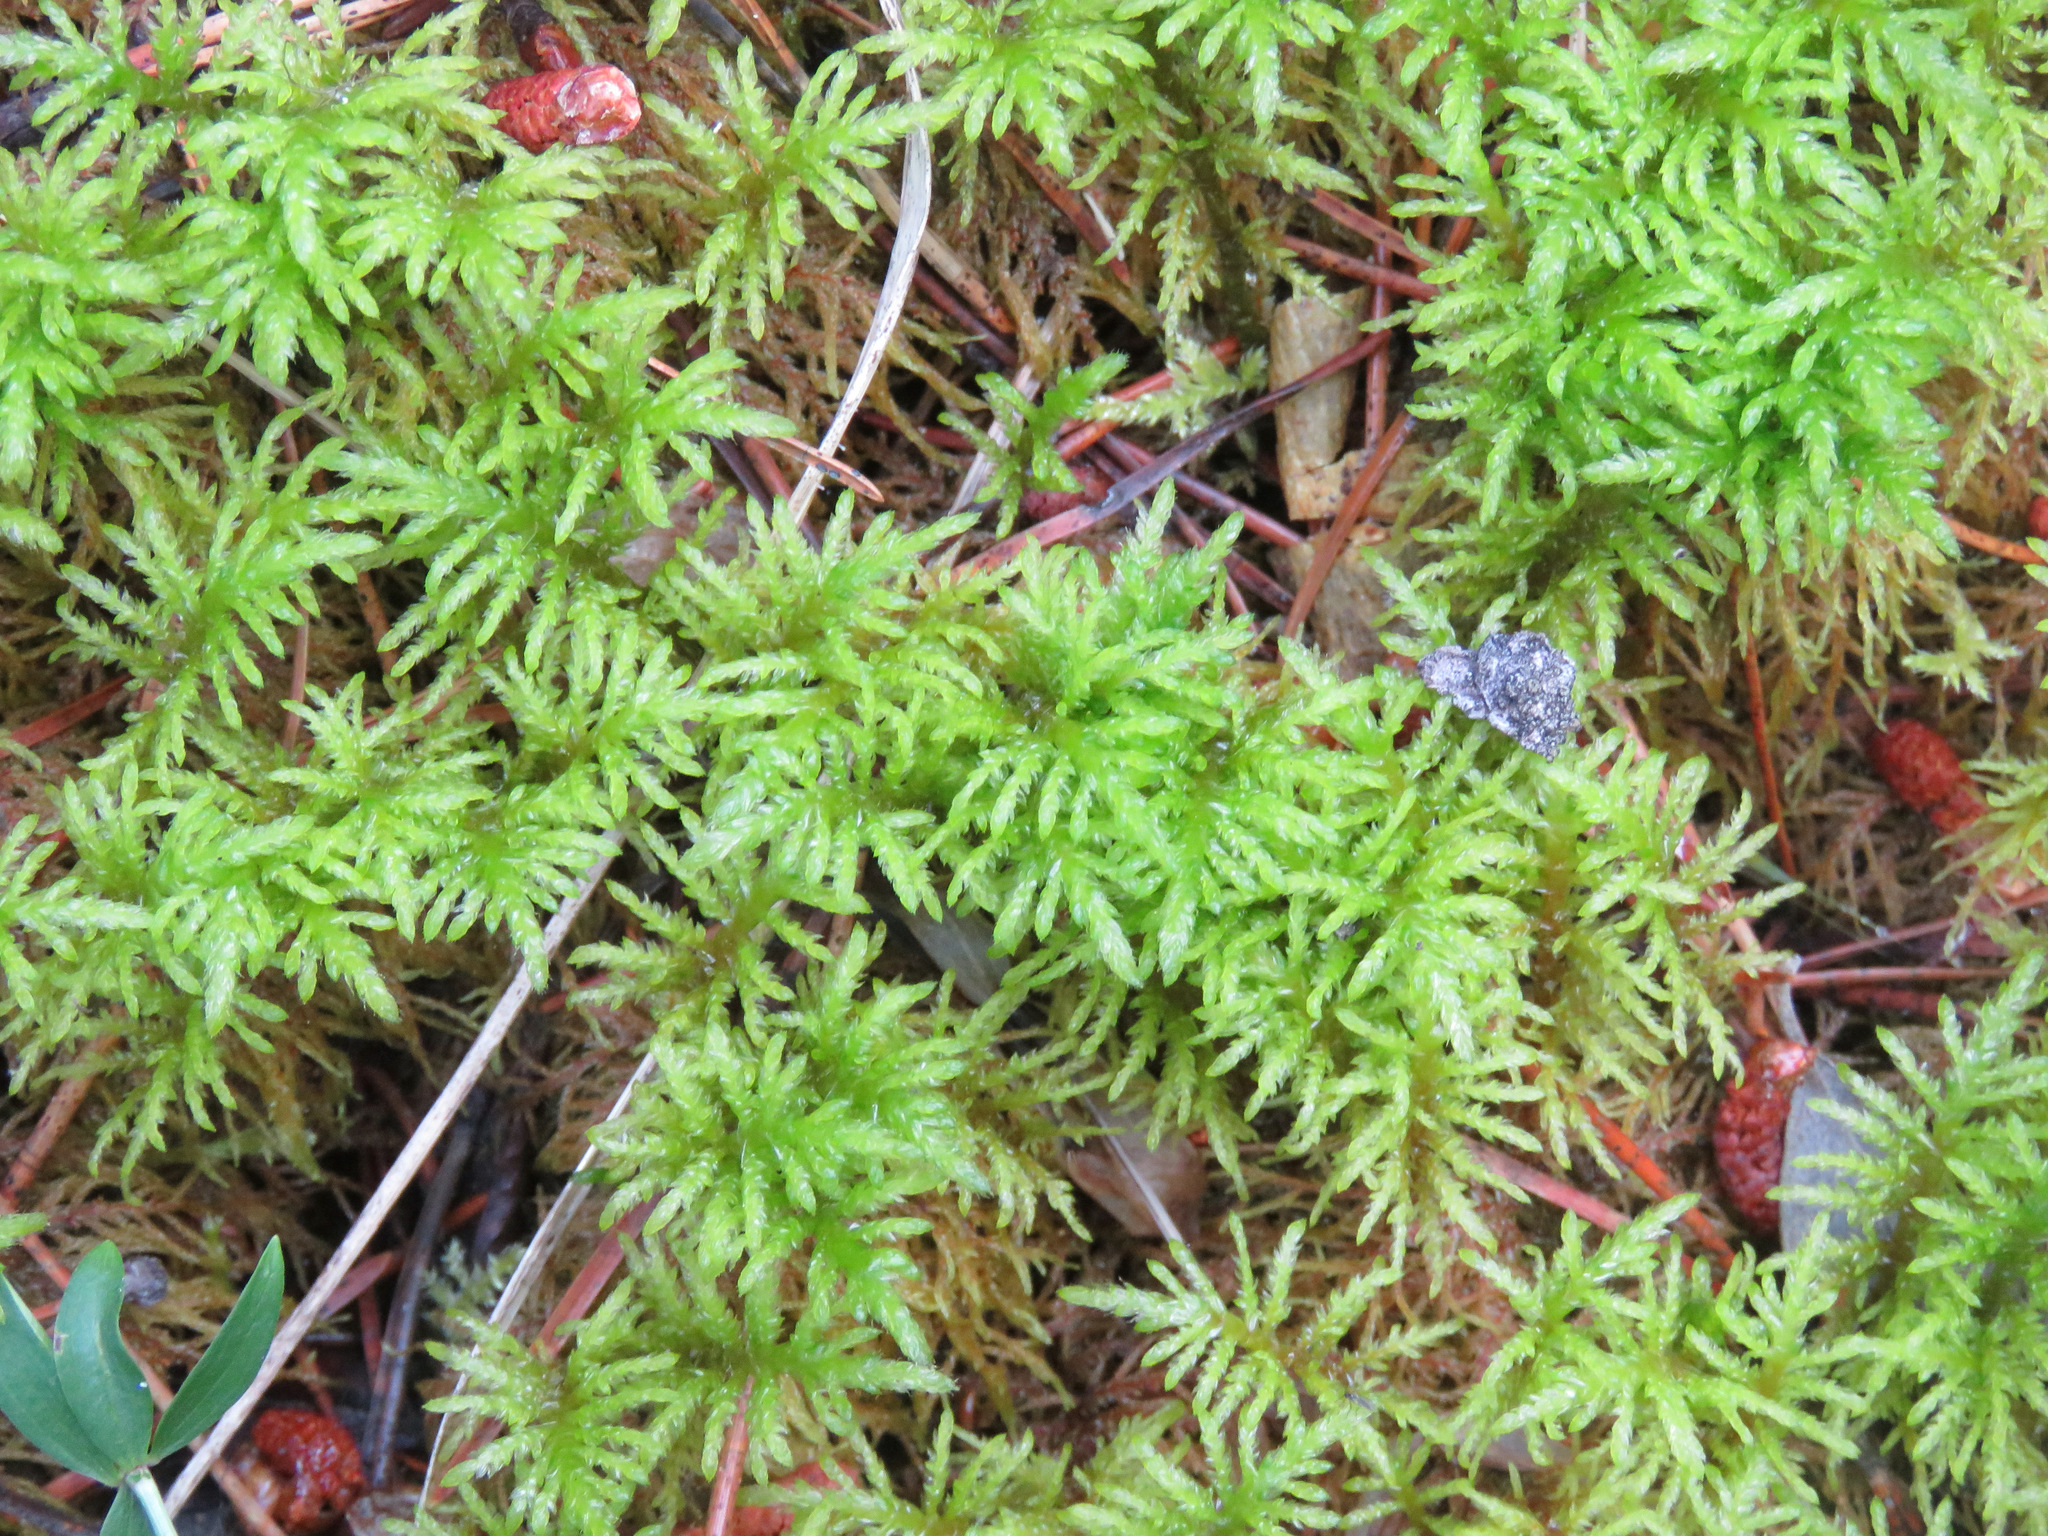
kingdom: Plantae
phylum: Bryophyta
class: Bryopsida
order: Hypnales
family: Hylocomiaceae
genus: Hylocomium
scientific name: Hylocomium splendens
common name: Stairstep moss
